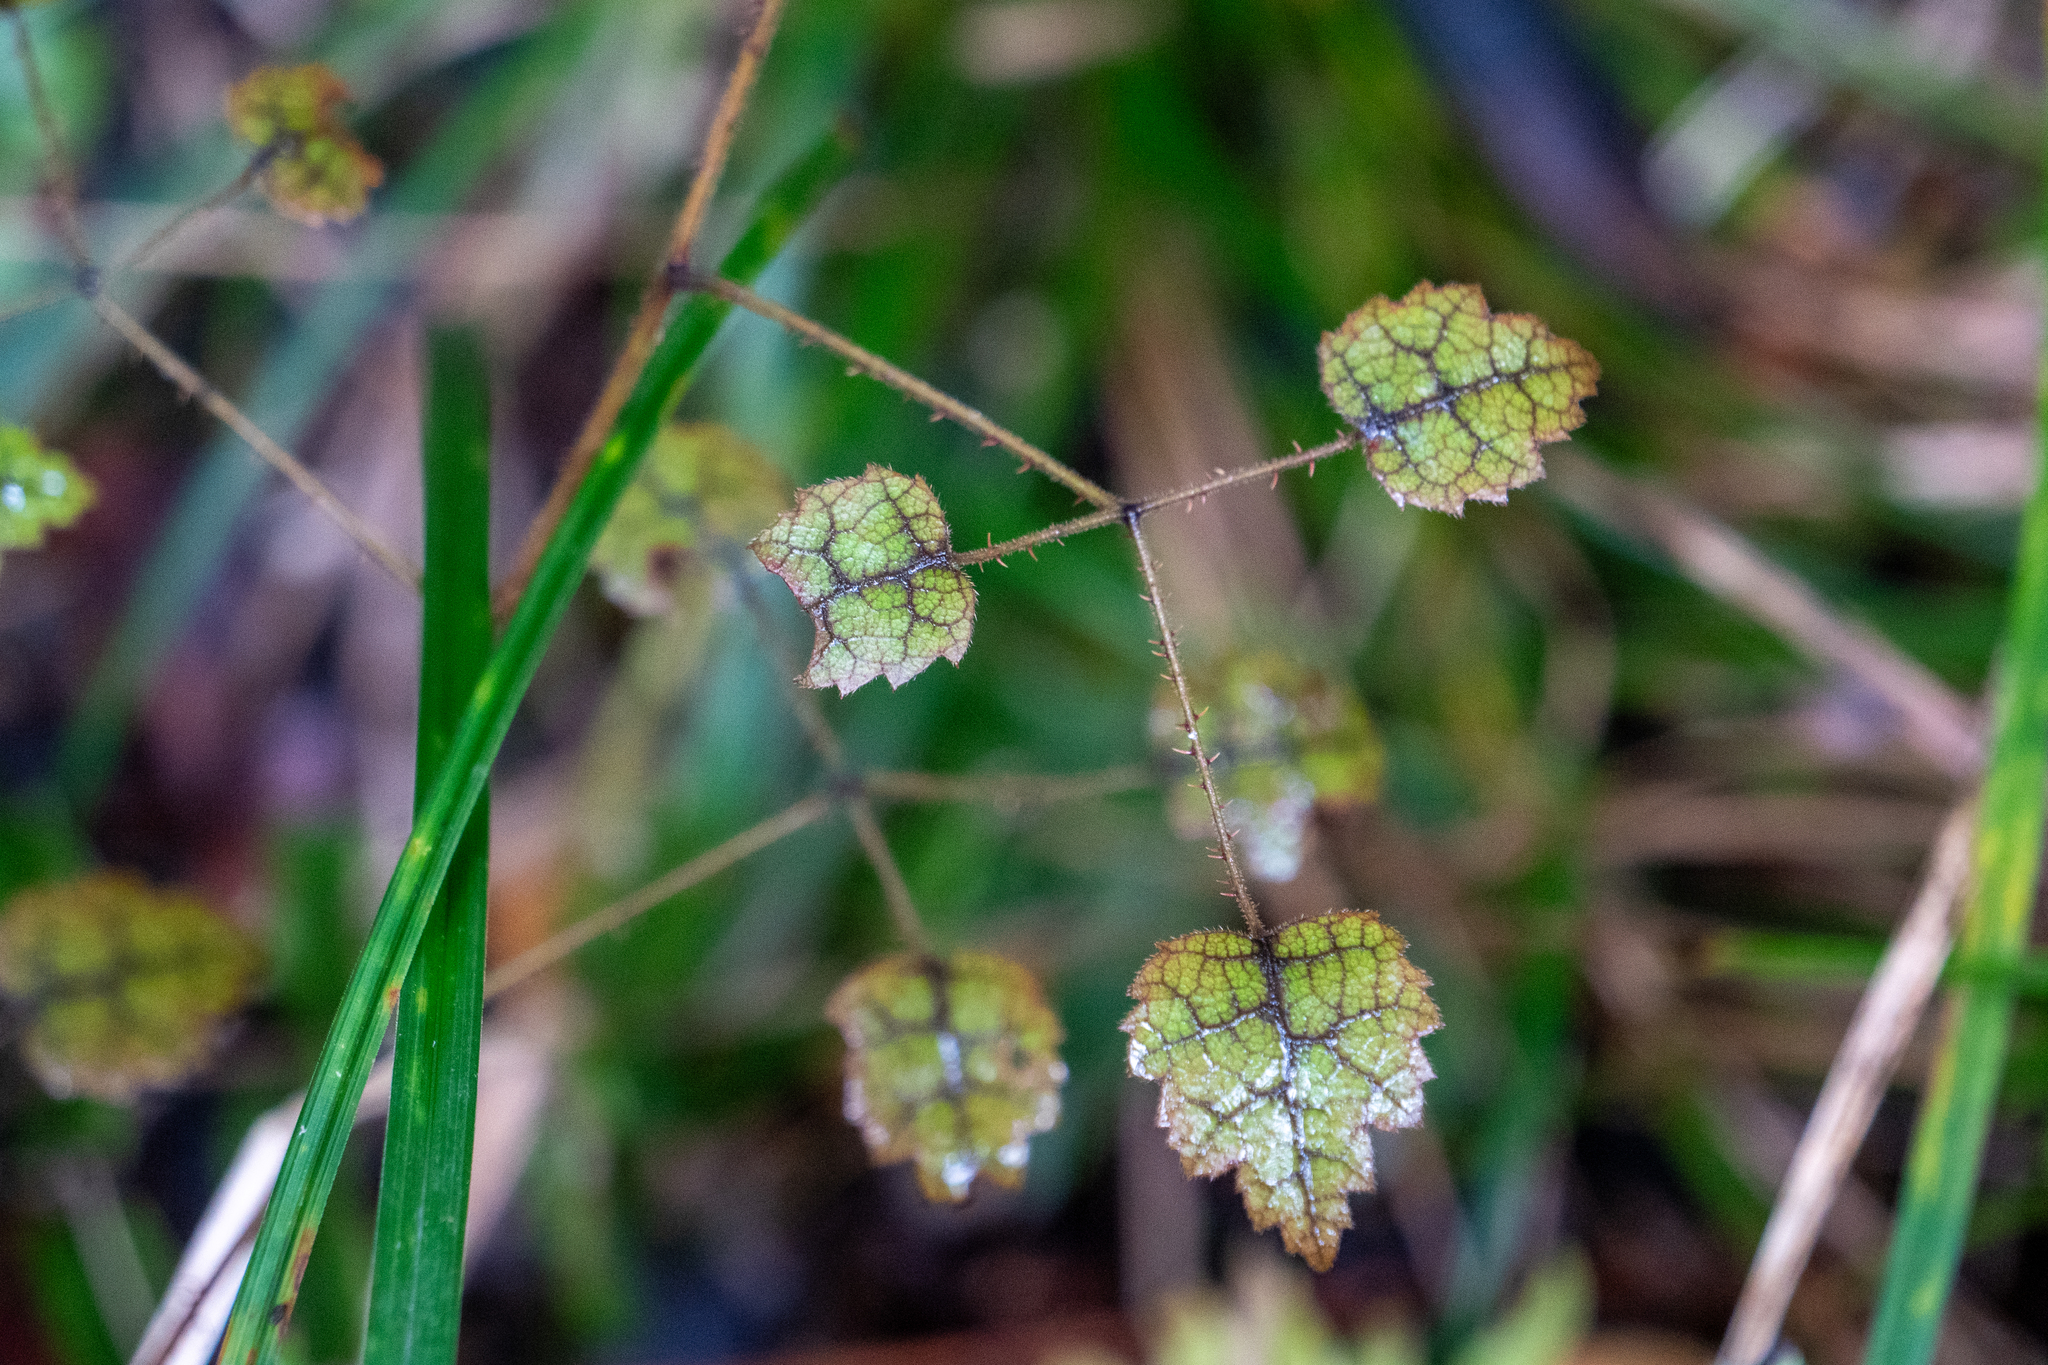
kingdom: Plantae
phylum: Tracheophyta
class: Magnoliopsida
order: Rosales
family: Rosaceae
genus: Rubus
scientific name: Rubus australis
